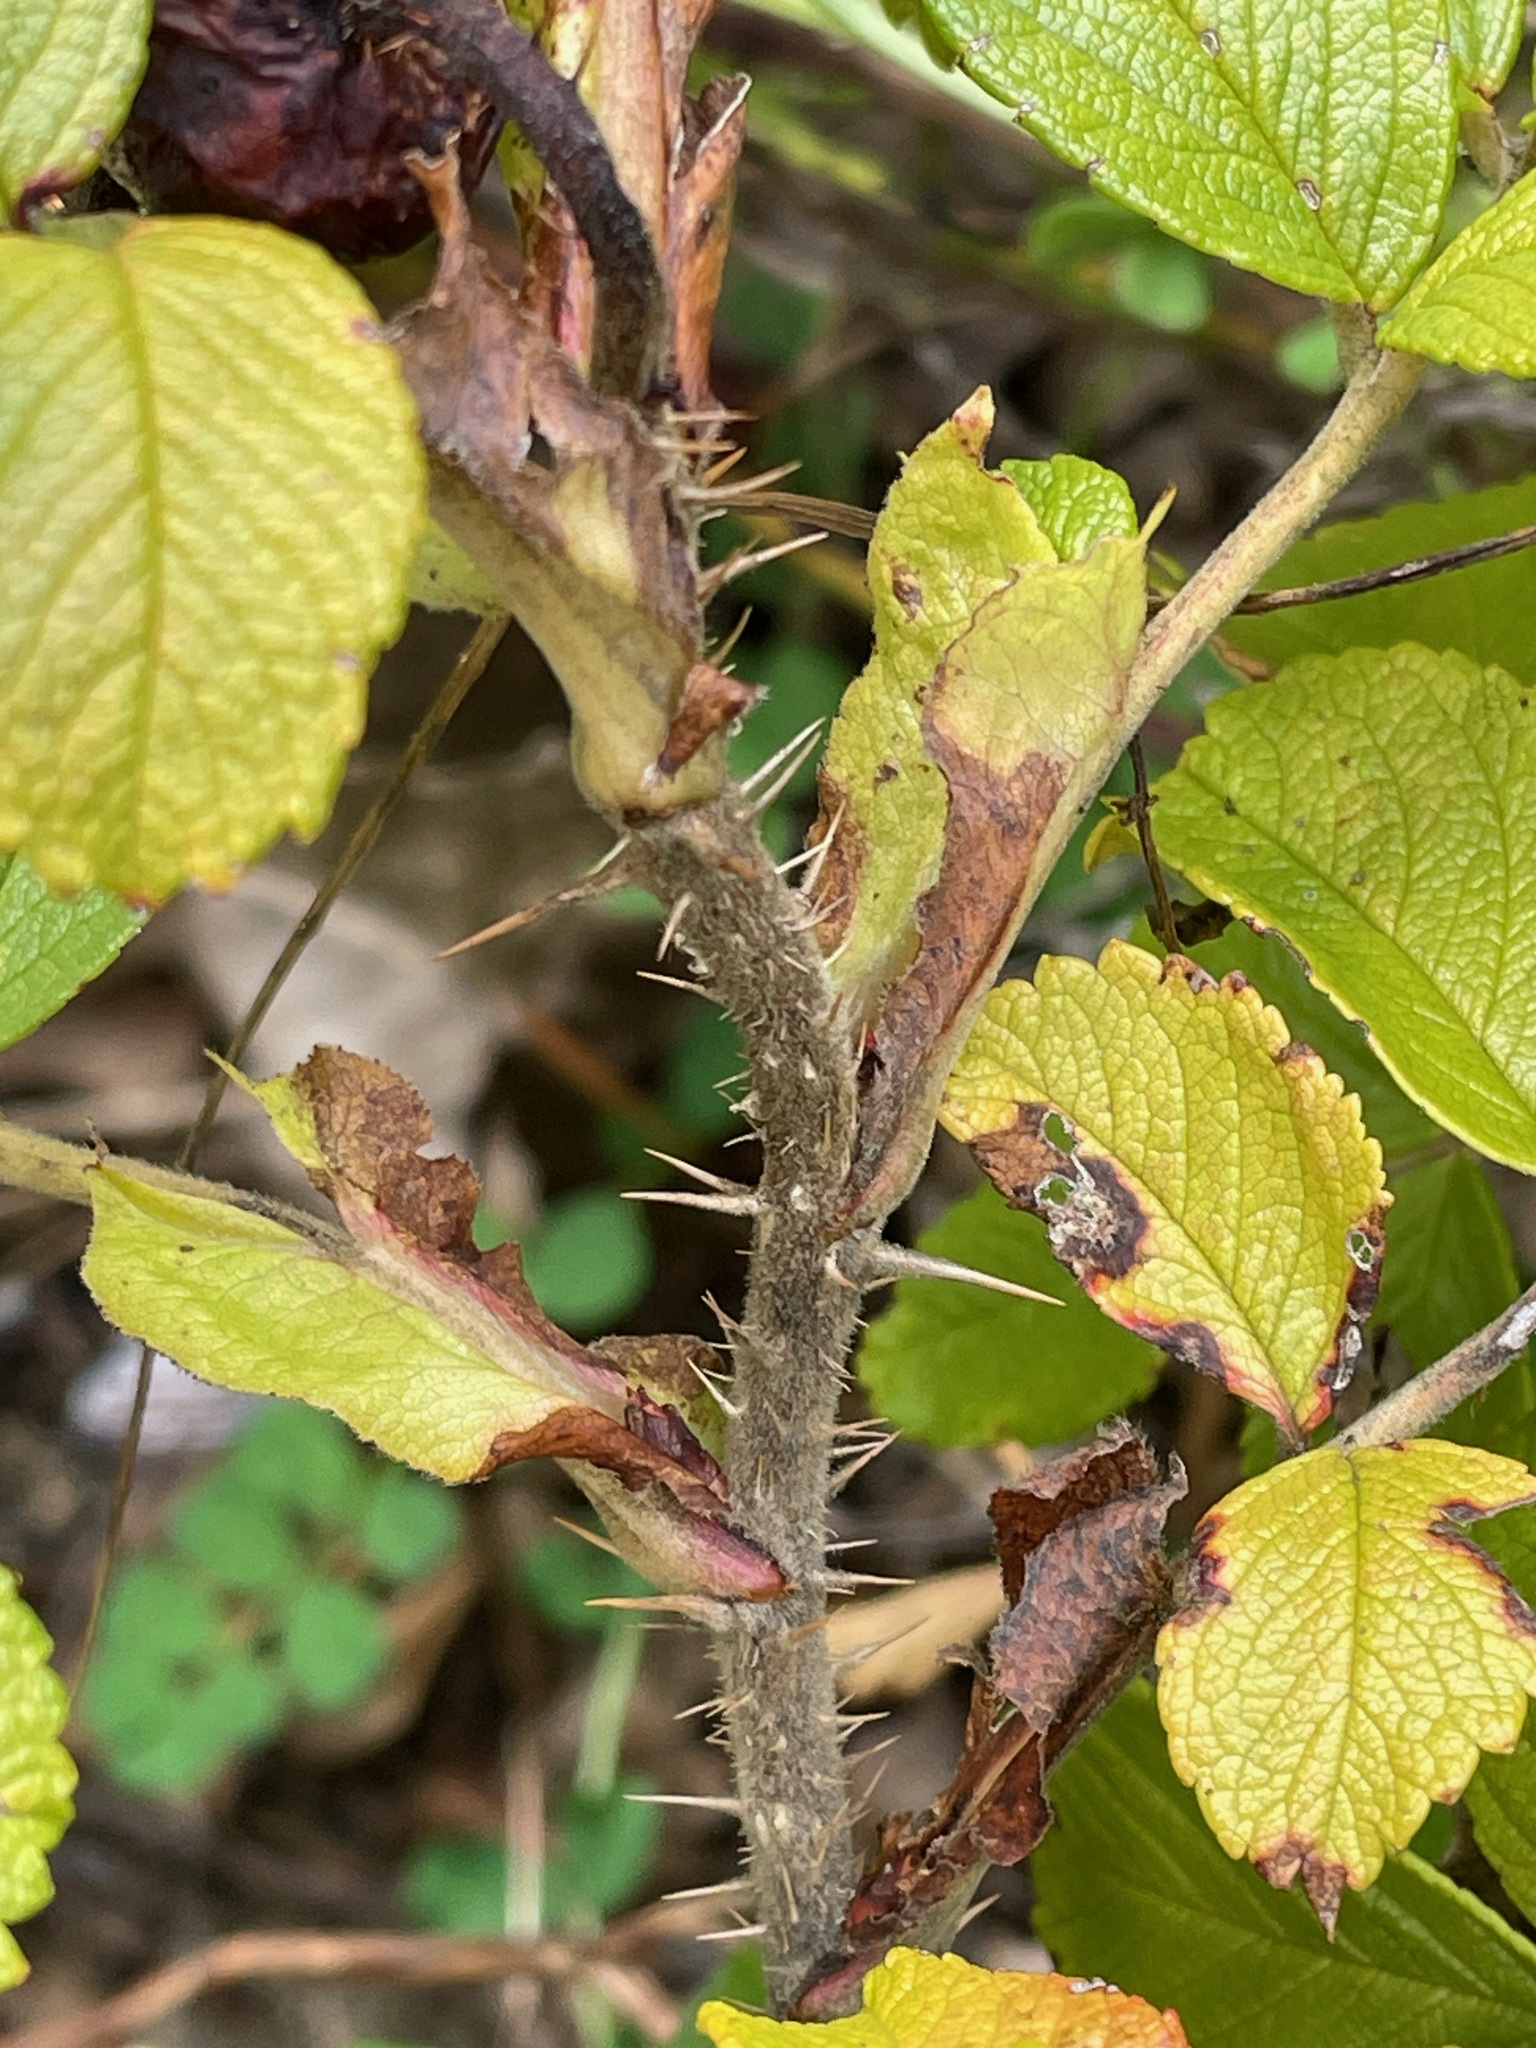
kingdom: Plantae
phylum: Tracheophyta
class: Magnoliopsida
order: Rosales
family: Rosaceae
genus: Rosa
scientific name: Rosa rugosa
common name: Japanese rose
